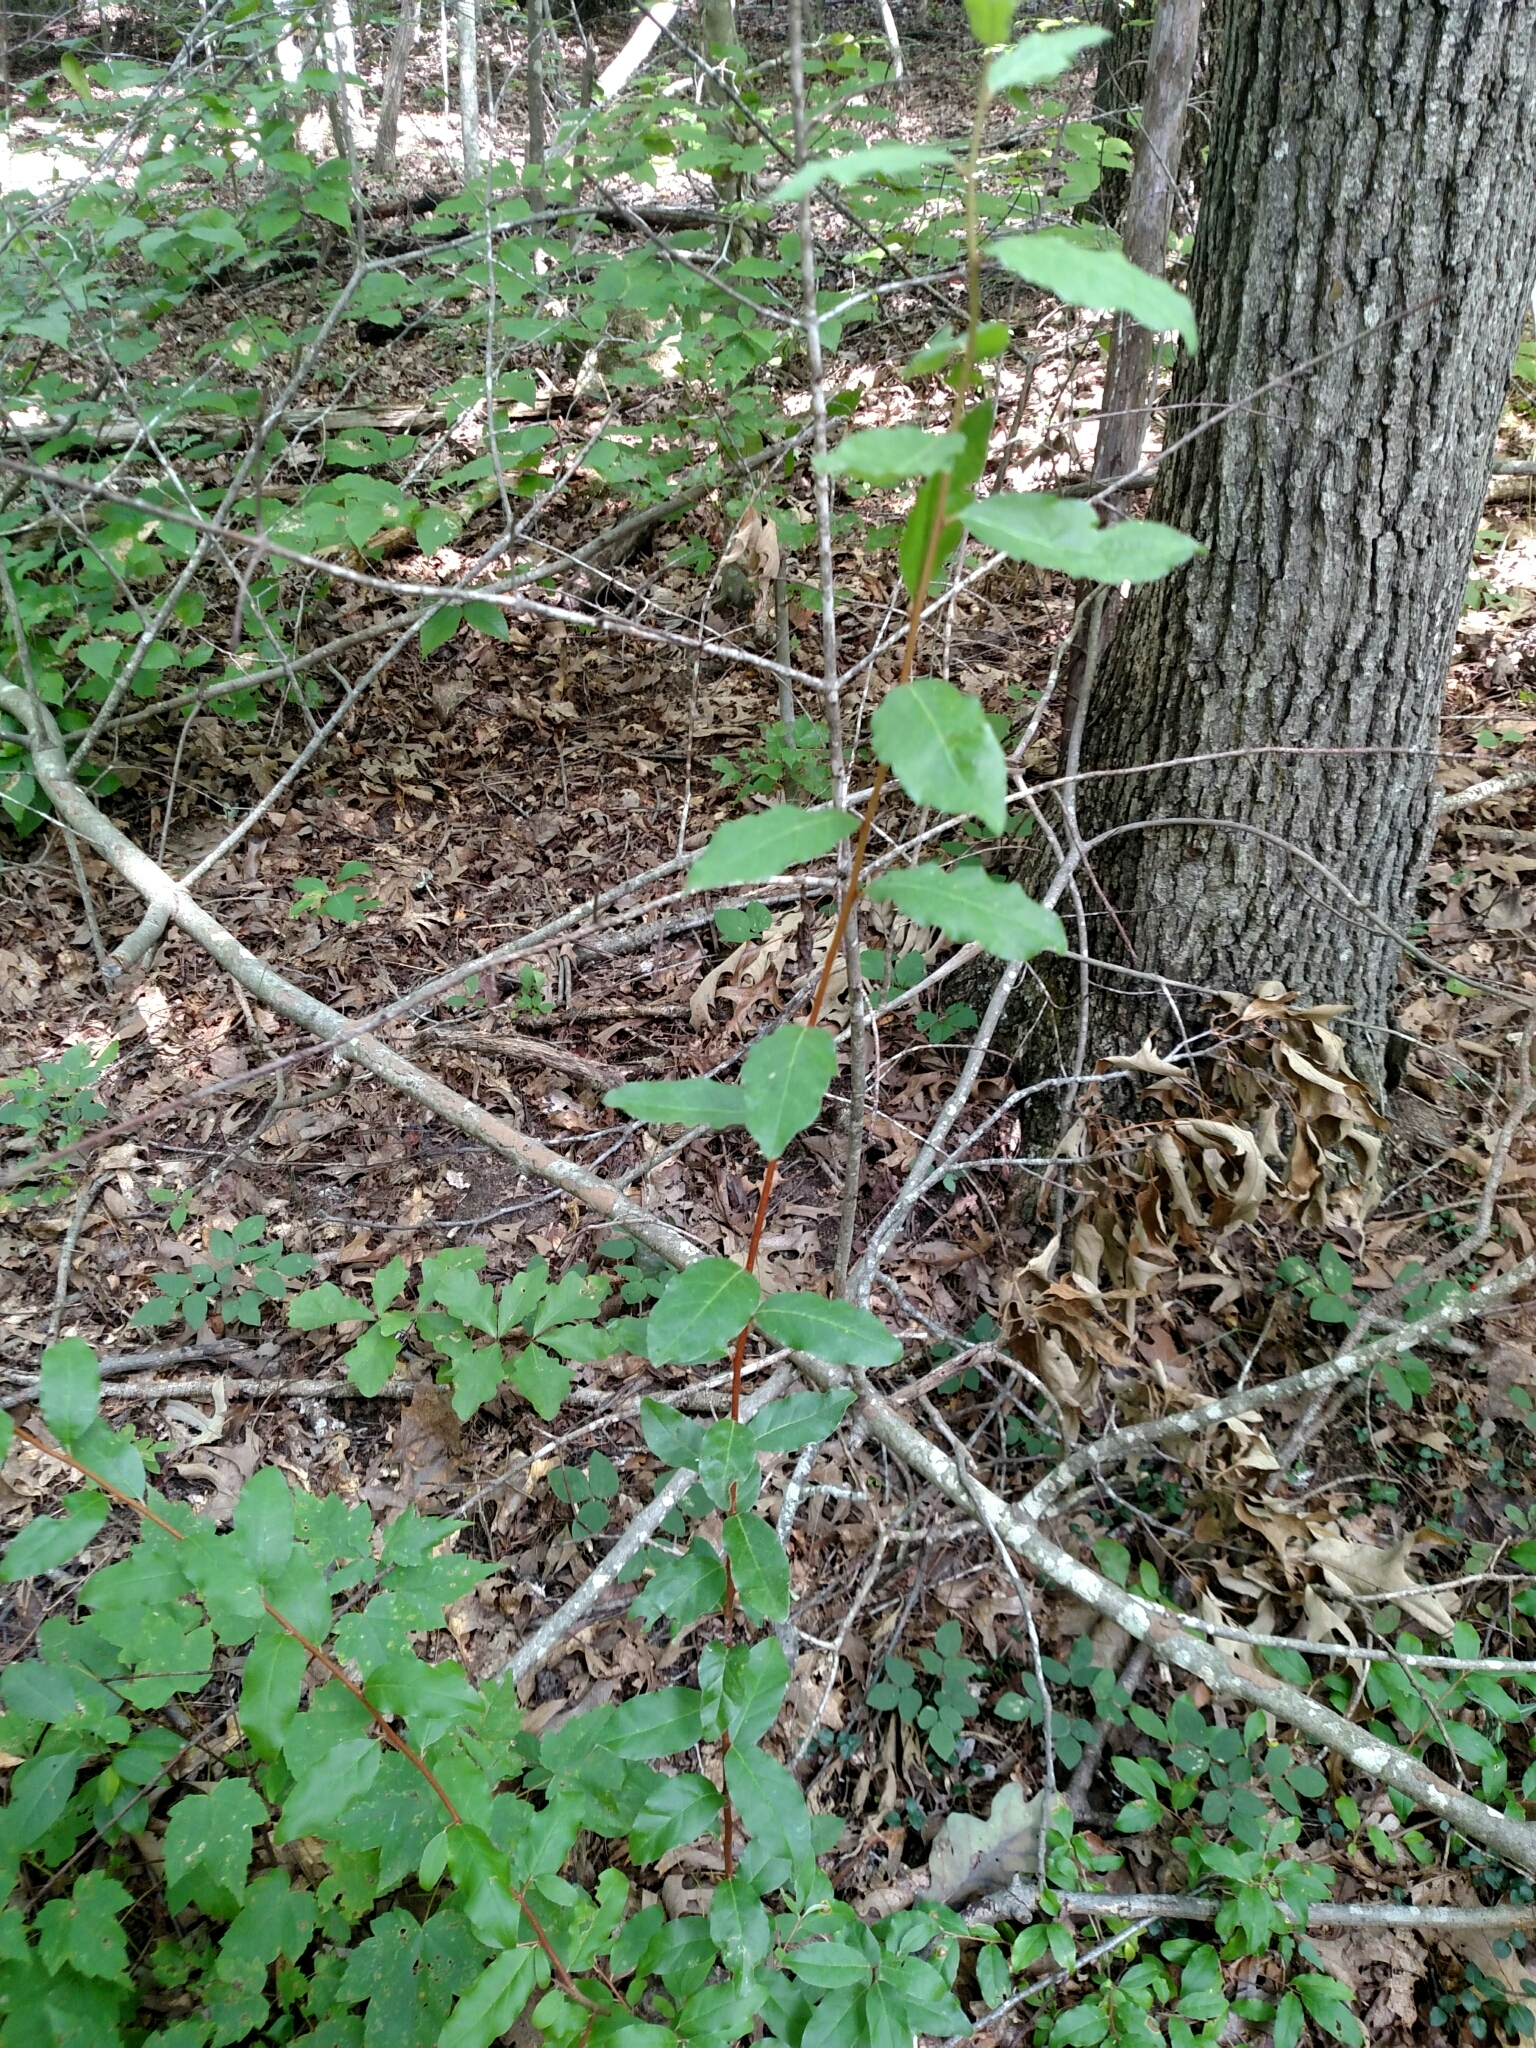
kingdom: Plantae
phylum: Tracheophyta
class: Magnoliopsida
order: Rosales
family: Elaeagnaceae
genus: Elaeagnus
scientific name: Elaeagnus umbellata
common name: Autumn olive
